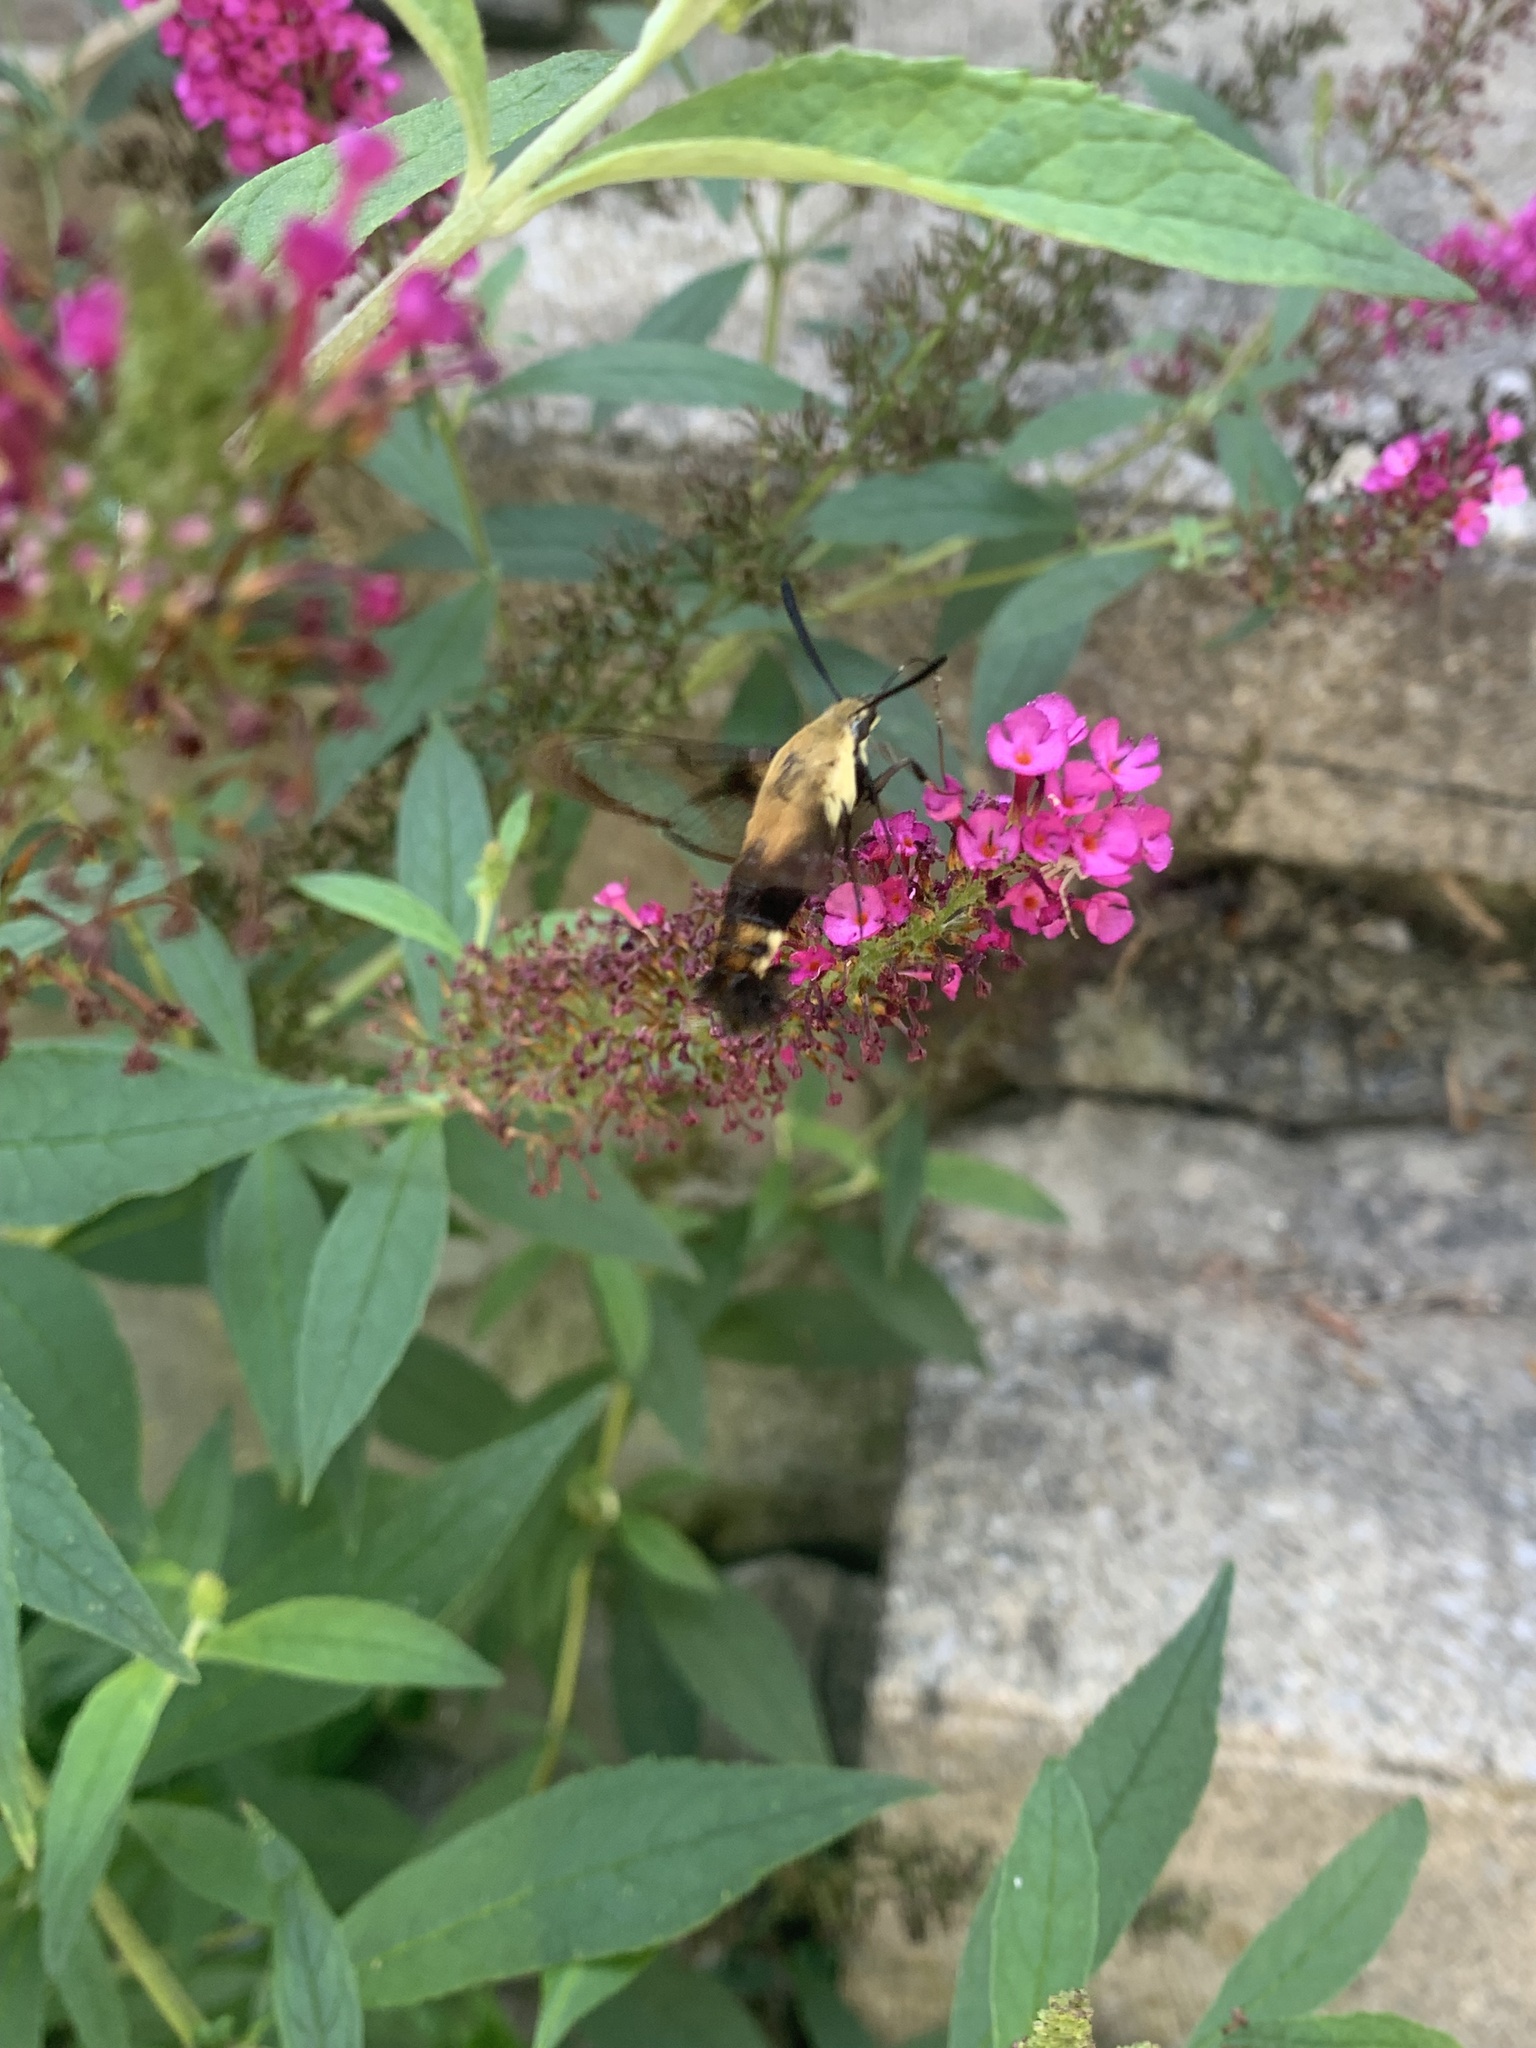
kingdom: Animalia
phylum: Arthropoda
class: Insecta
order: Lepidoptera
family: Sphingidae
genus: Hemaris
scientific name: Hemaris diffinis
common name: Bumblebee moth
